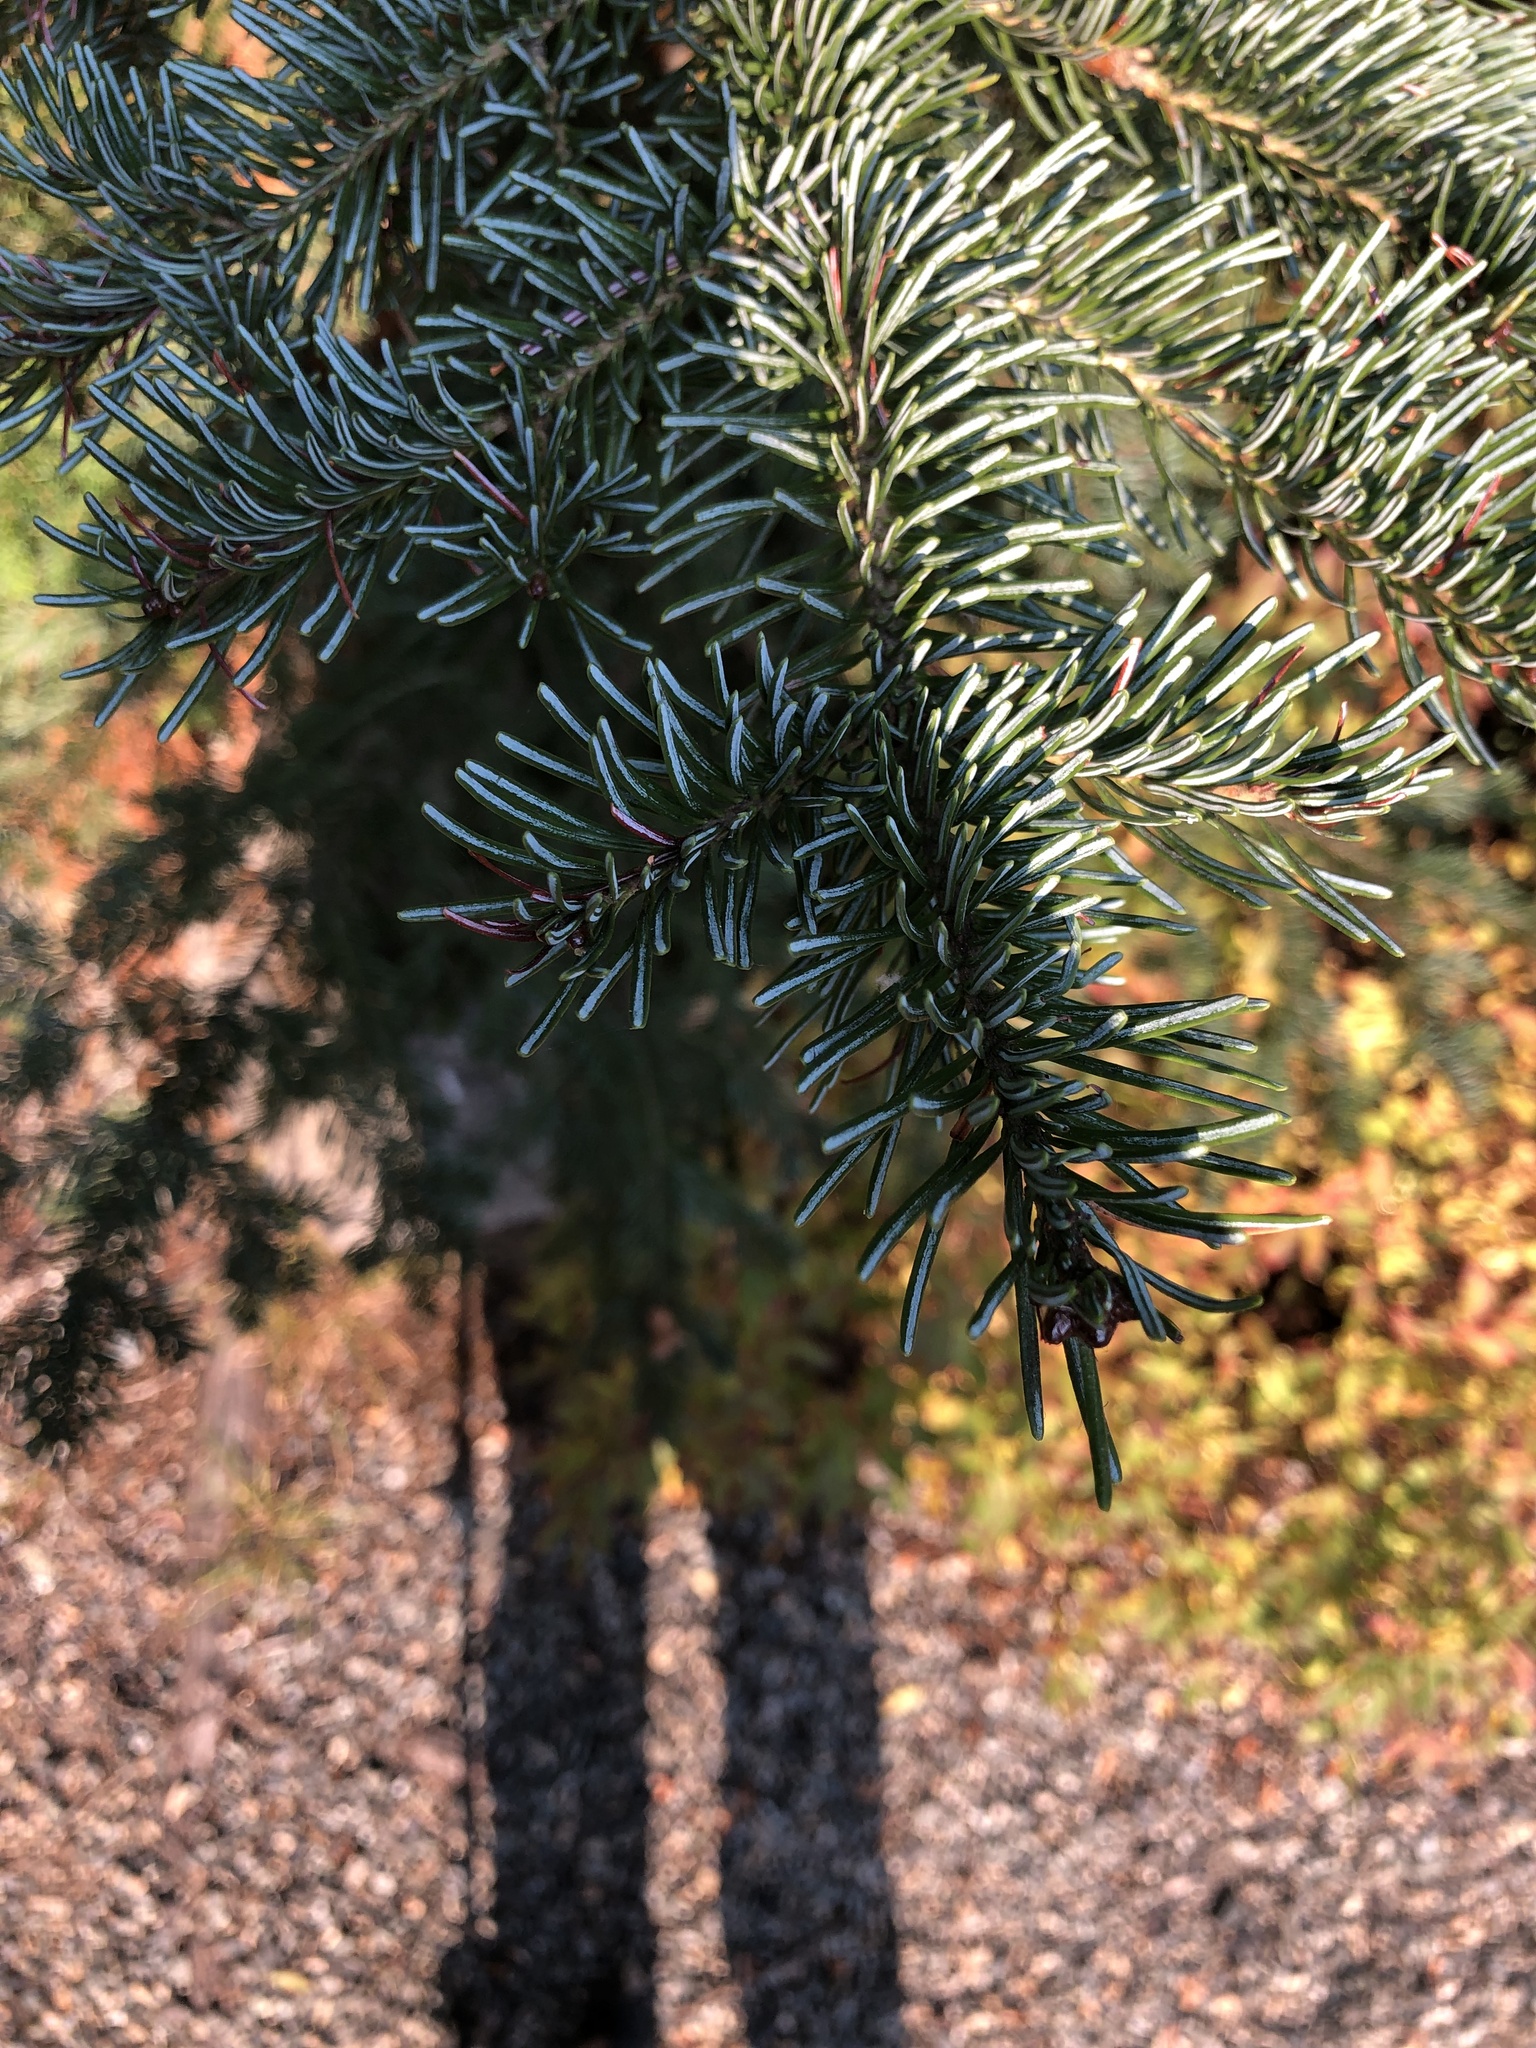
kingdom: Plantae
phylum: Tracheophyta
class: Pinopsida
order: Pinales
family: Pinaceae
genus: Abies
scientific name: Abies lasiocarpa
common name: Subalpine fir
